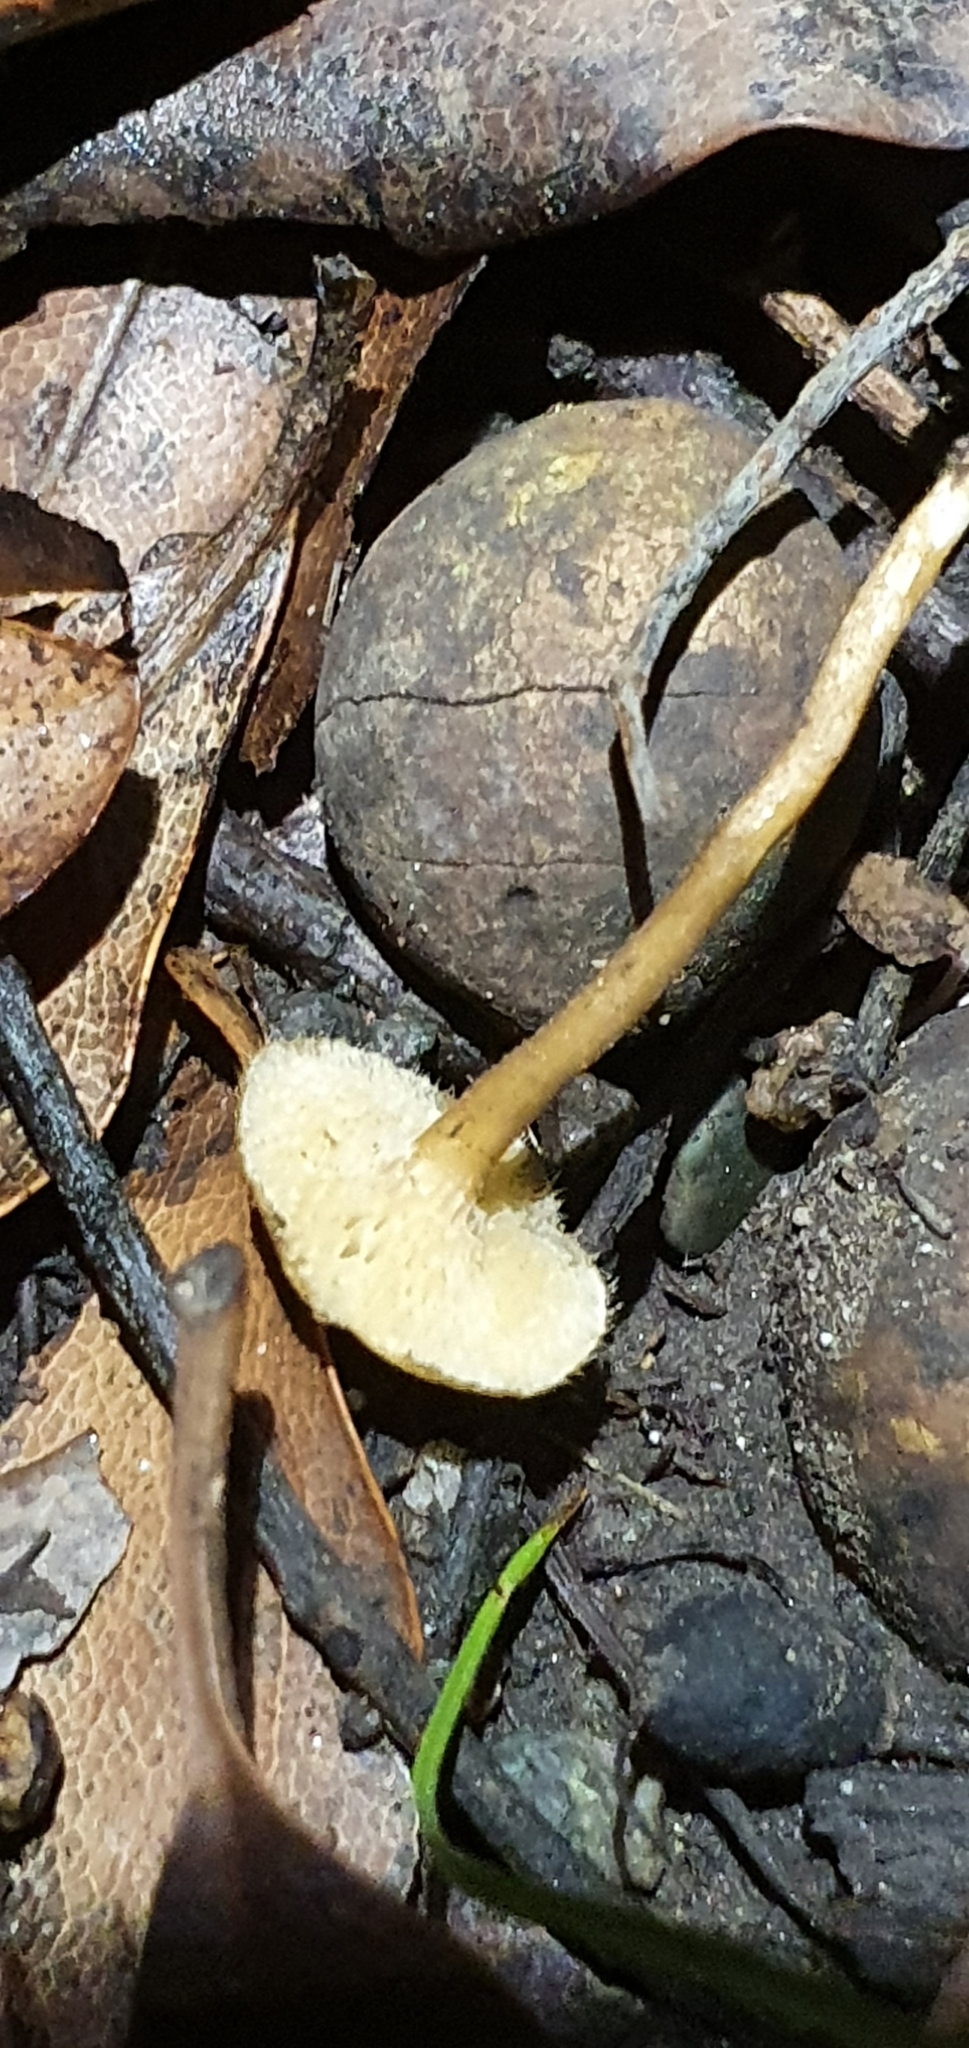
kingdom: Fungi
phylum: Basidiomycota
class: Agaricomycetes
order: Polyporales
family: Polyporaceae
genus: Lentinus
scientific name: Lentinus arcularius
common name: Spring polypore
